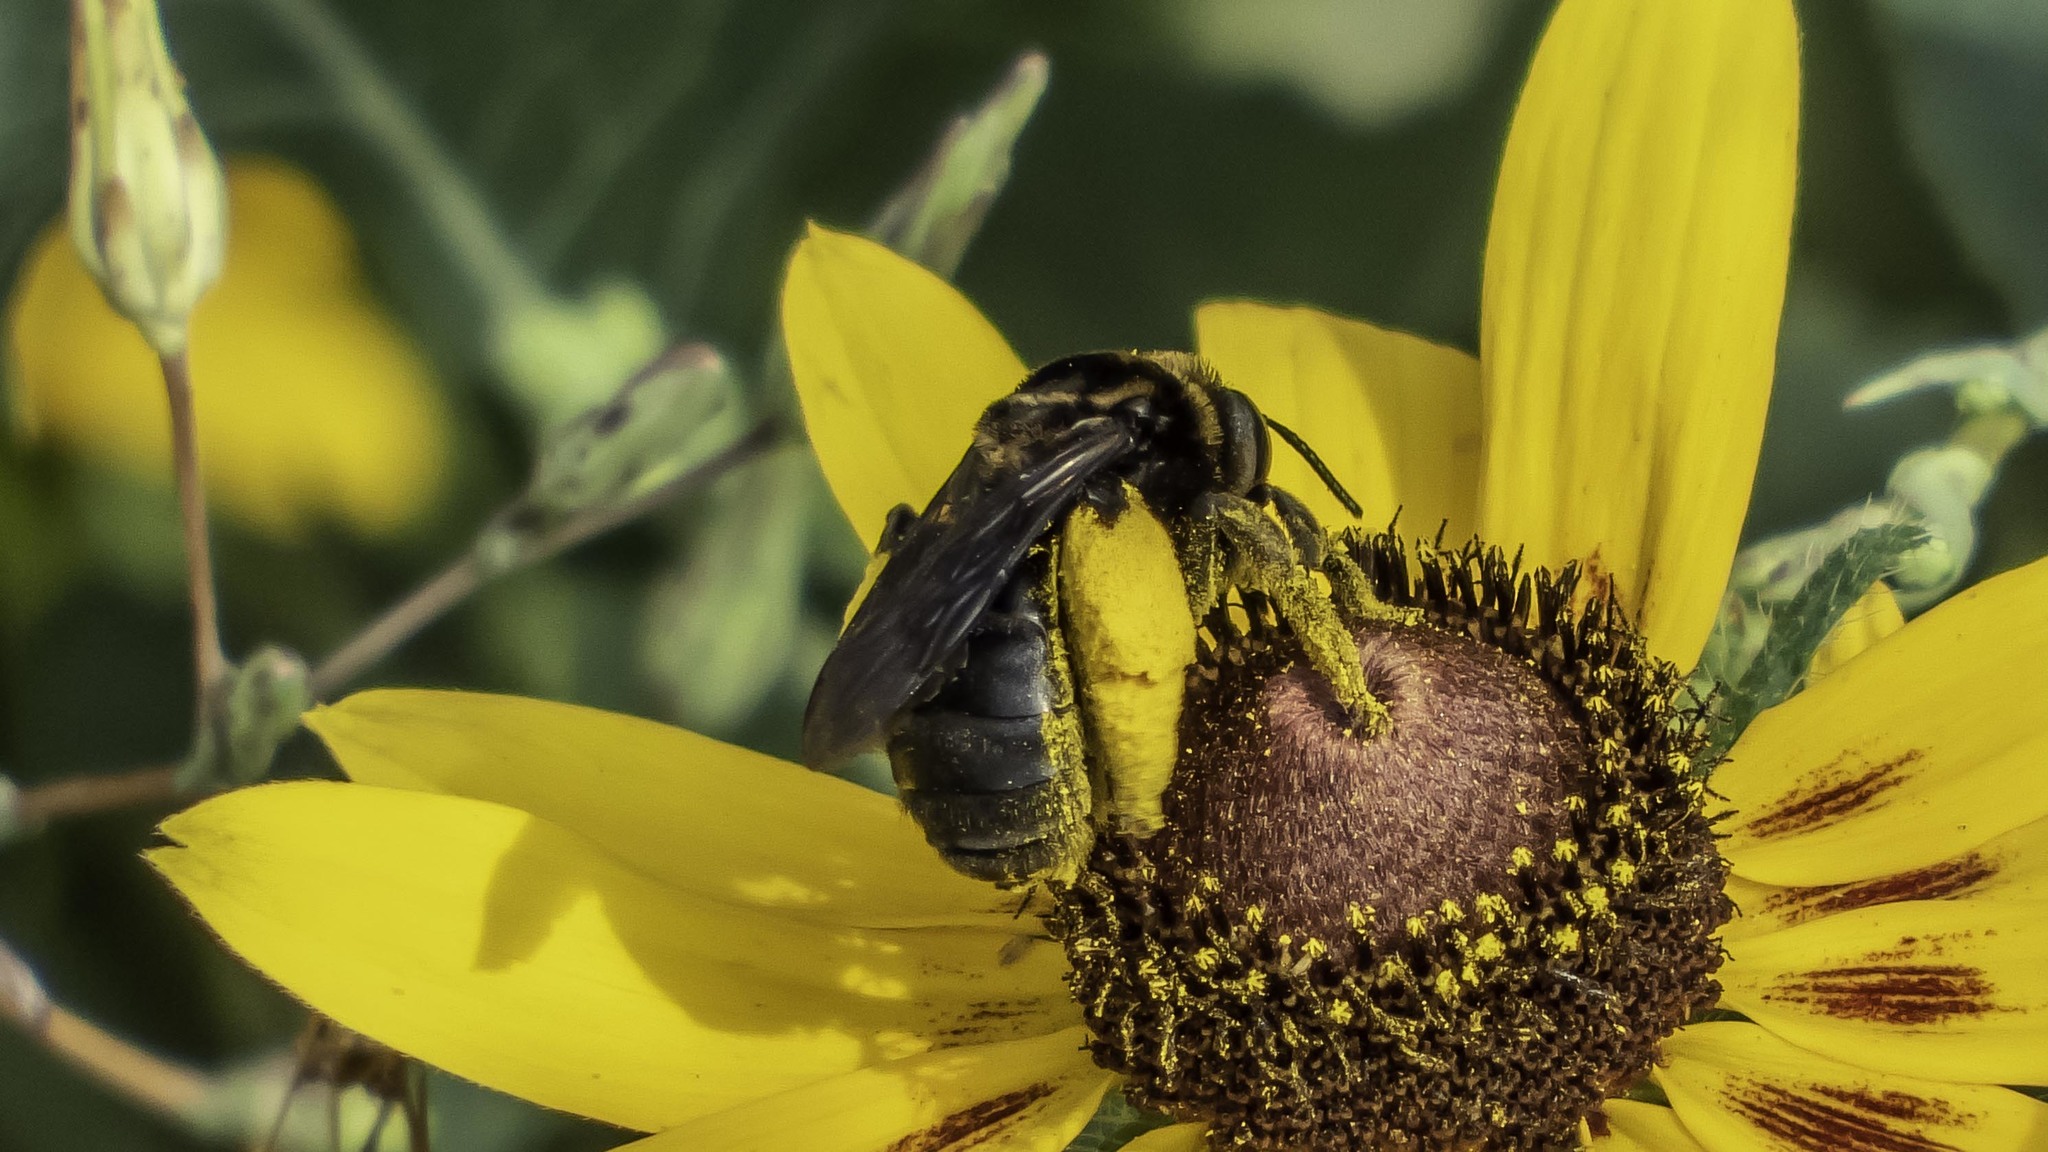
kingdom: Animalia
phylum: Arthropoda
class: Insecta
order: Hymenoptera
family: Apidae
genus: Svastra
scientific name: Svastra obliqua
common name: Oblique longhorn
